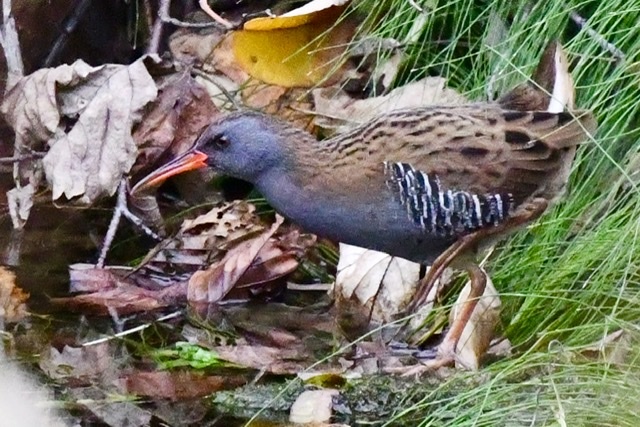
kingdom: Animalia
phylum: Chordata
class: Aves
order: Gruiformes
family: Rallidae
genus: Rallus
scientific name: Rallus aquaticus
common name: Water rail
